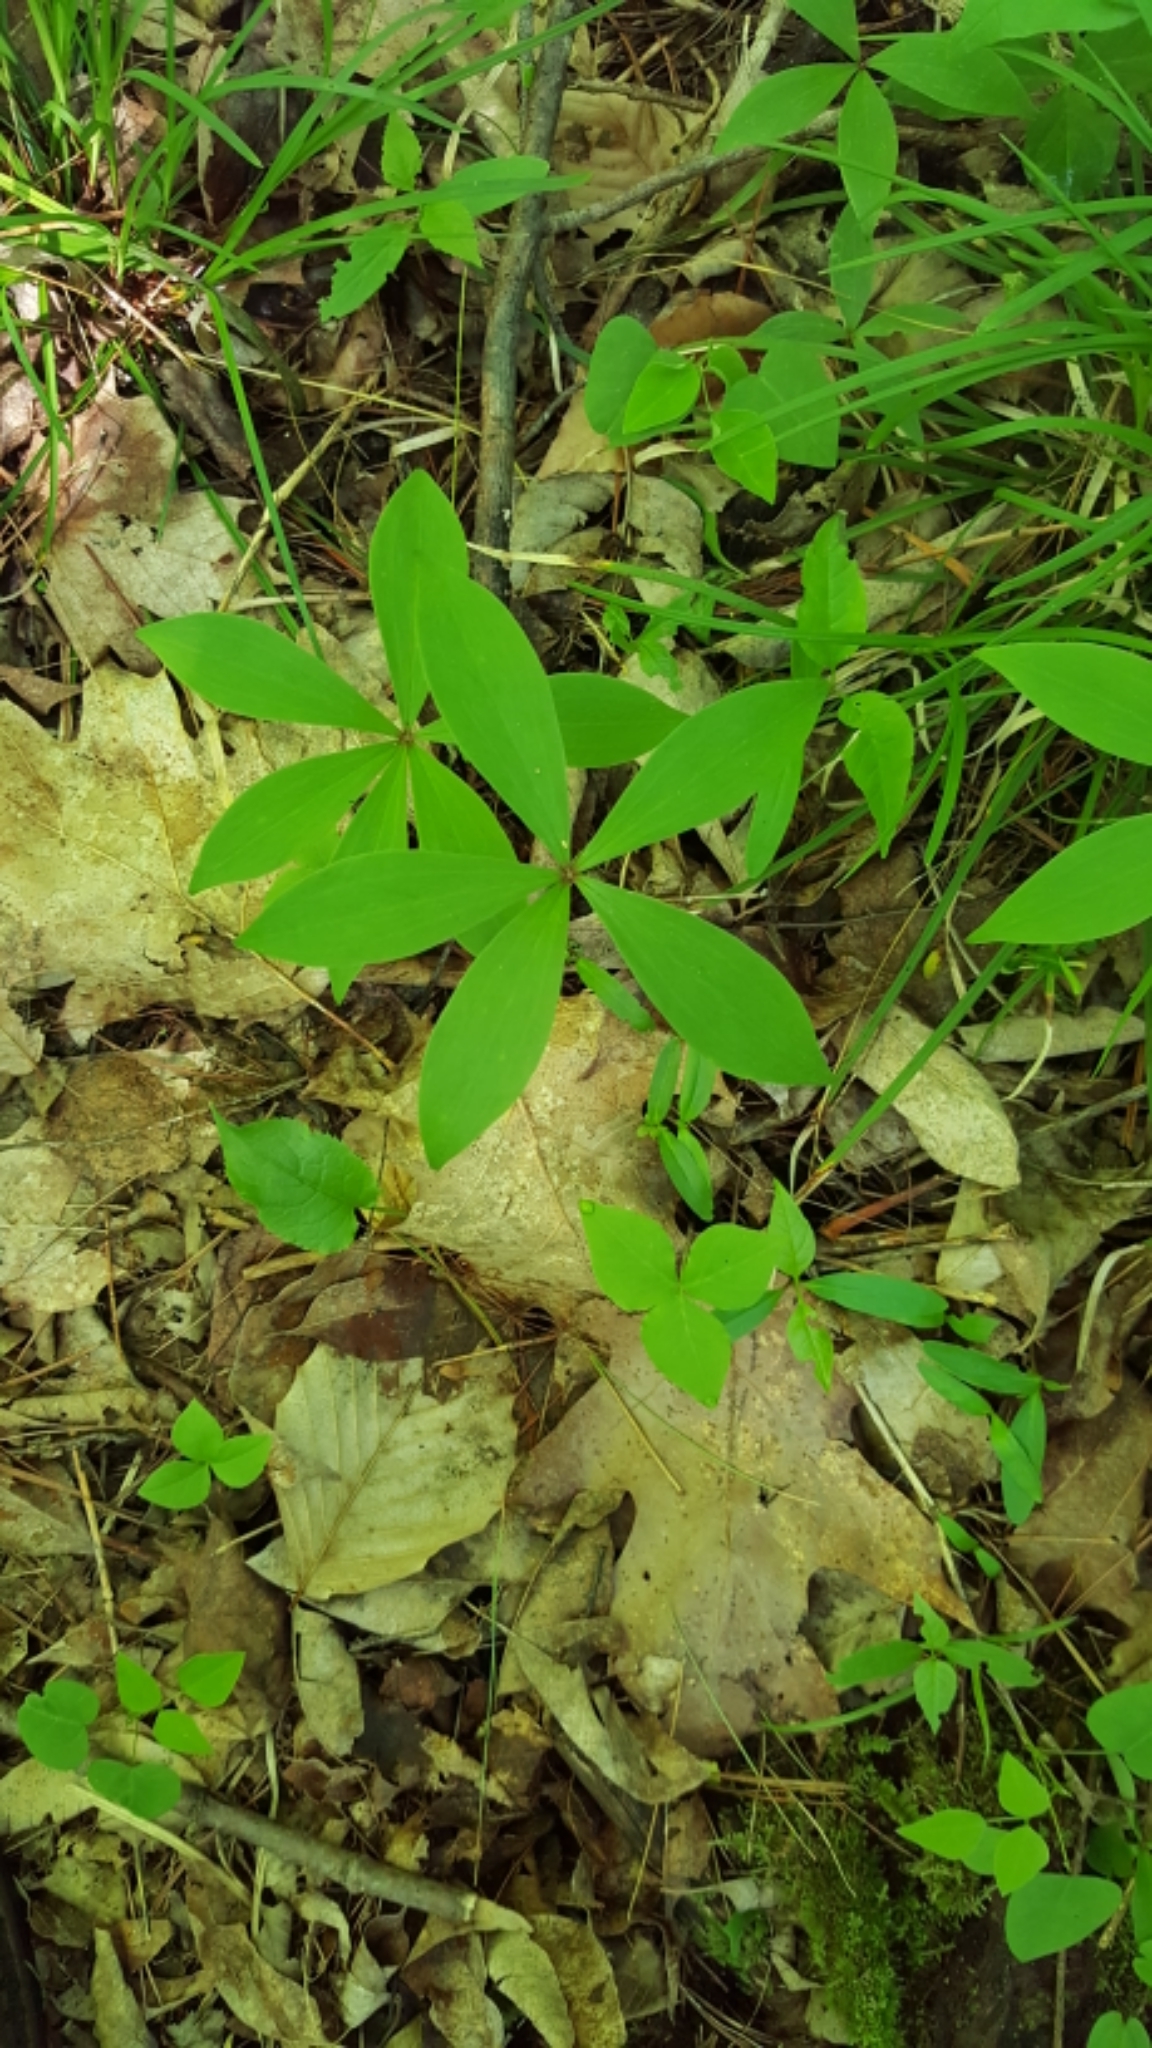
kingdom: Plantae
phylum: Tracheophyta
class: Liliopsida
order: Liliales
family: Liliaceae
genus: Medeola
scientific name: Medeola virginiana
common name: Indian cucumber-root
